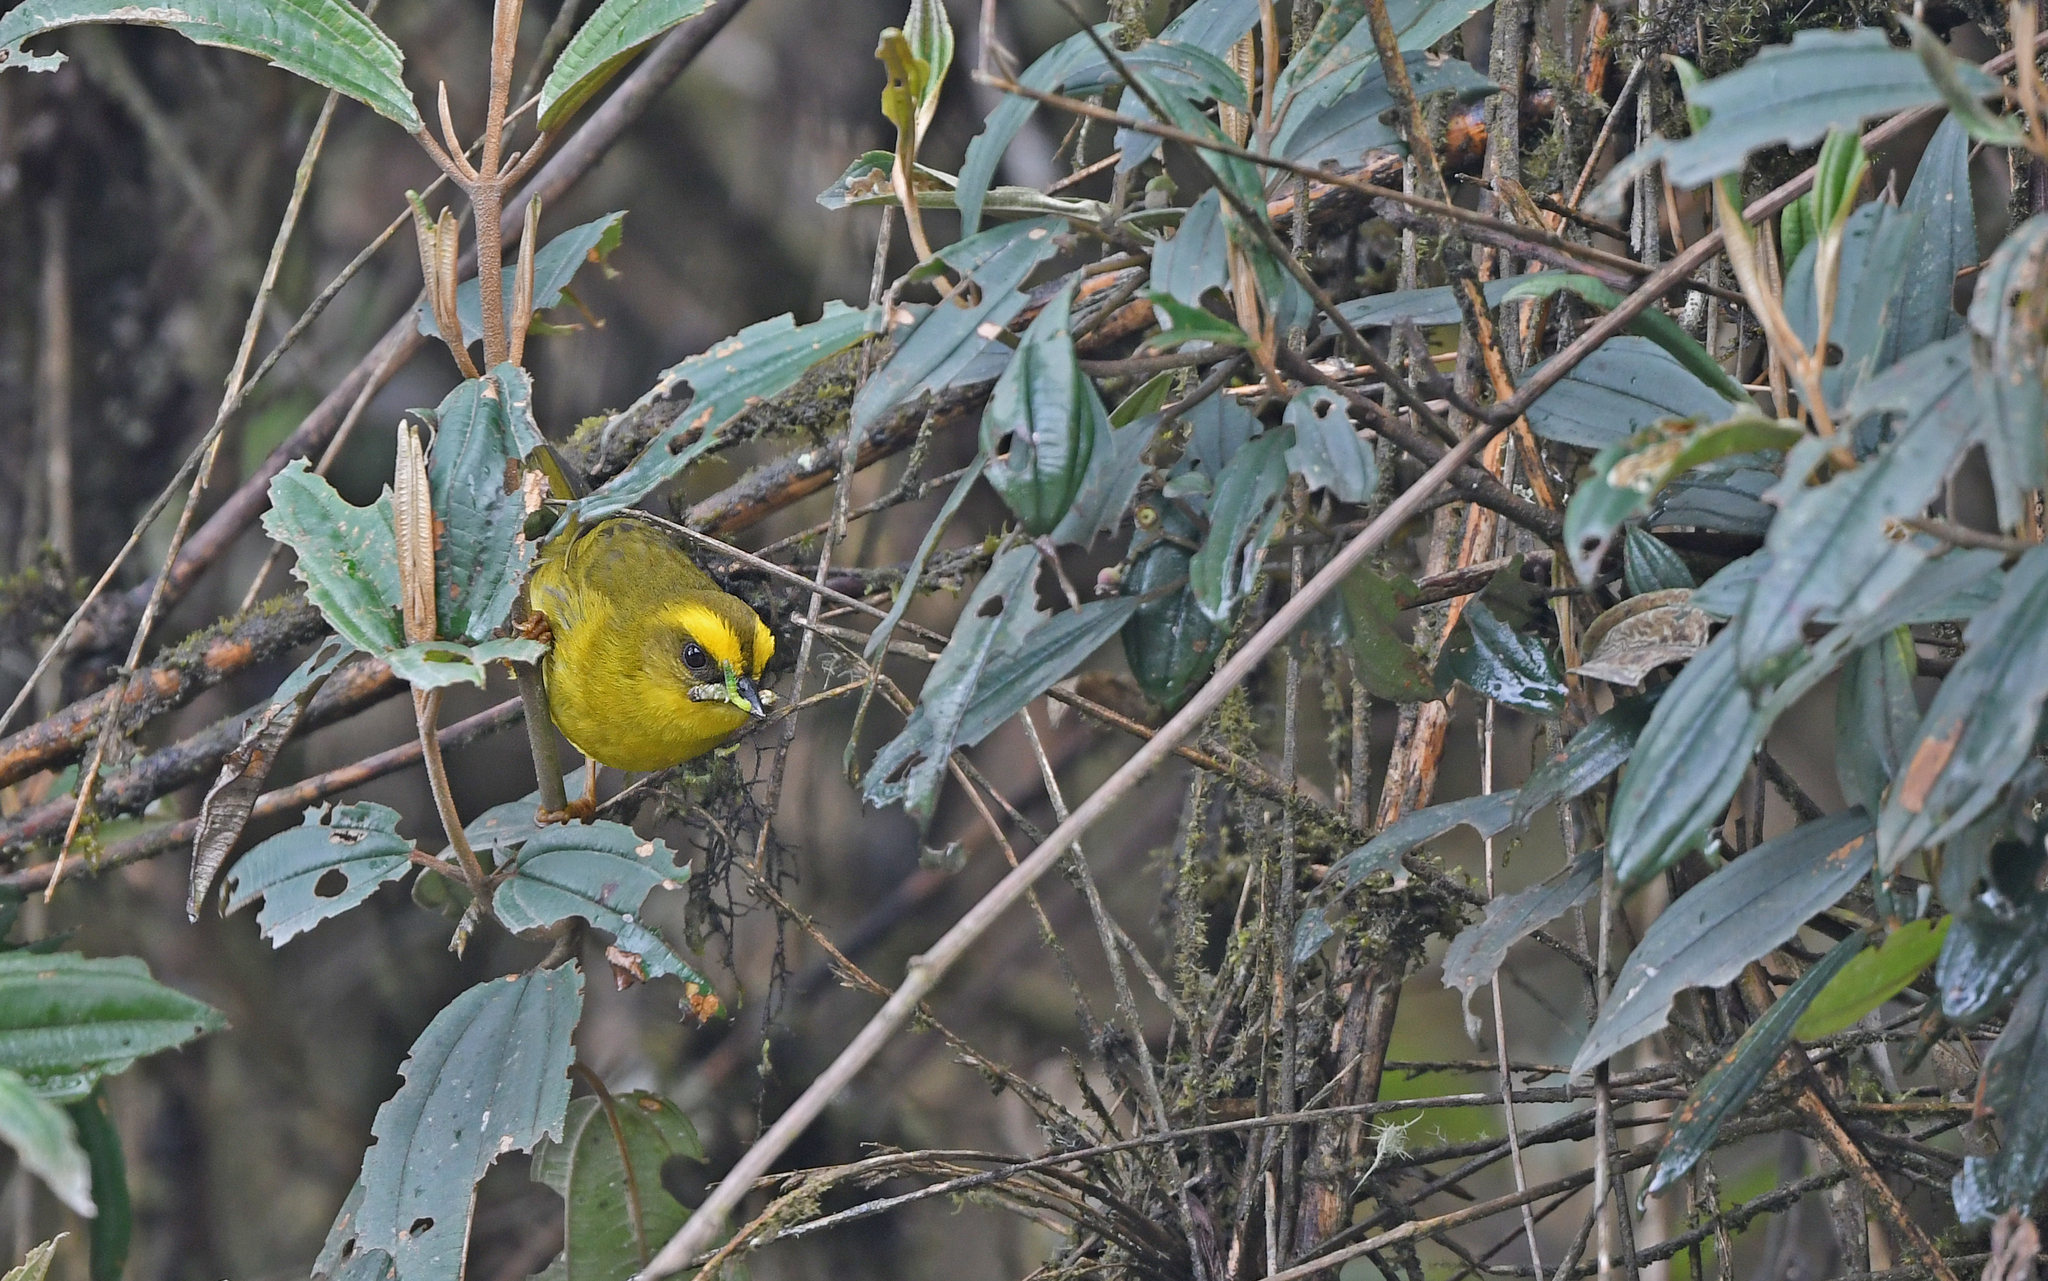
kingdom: Animalia
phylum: Chordata
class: Aves
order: Passeriformes
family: Parulidae
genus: Myiothlypis
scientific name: Myiothlypis luteoviridis
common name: Citrine warbler
